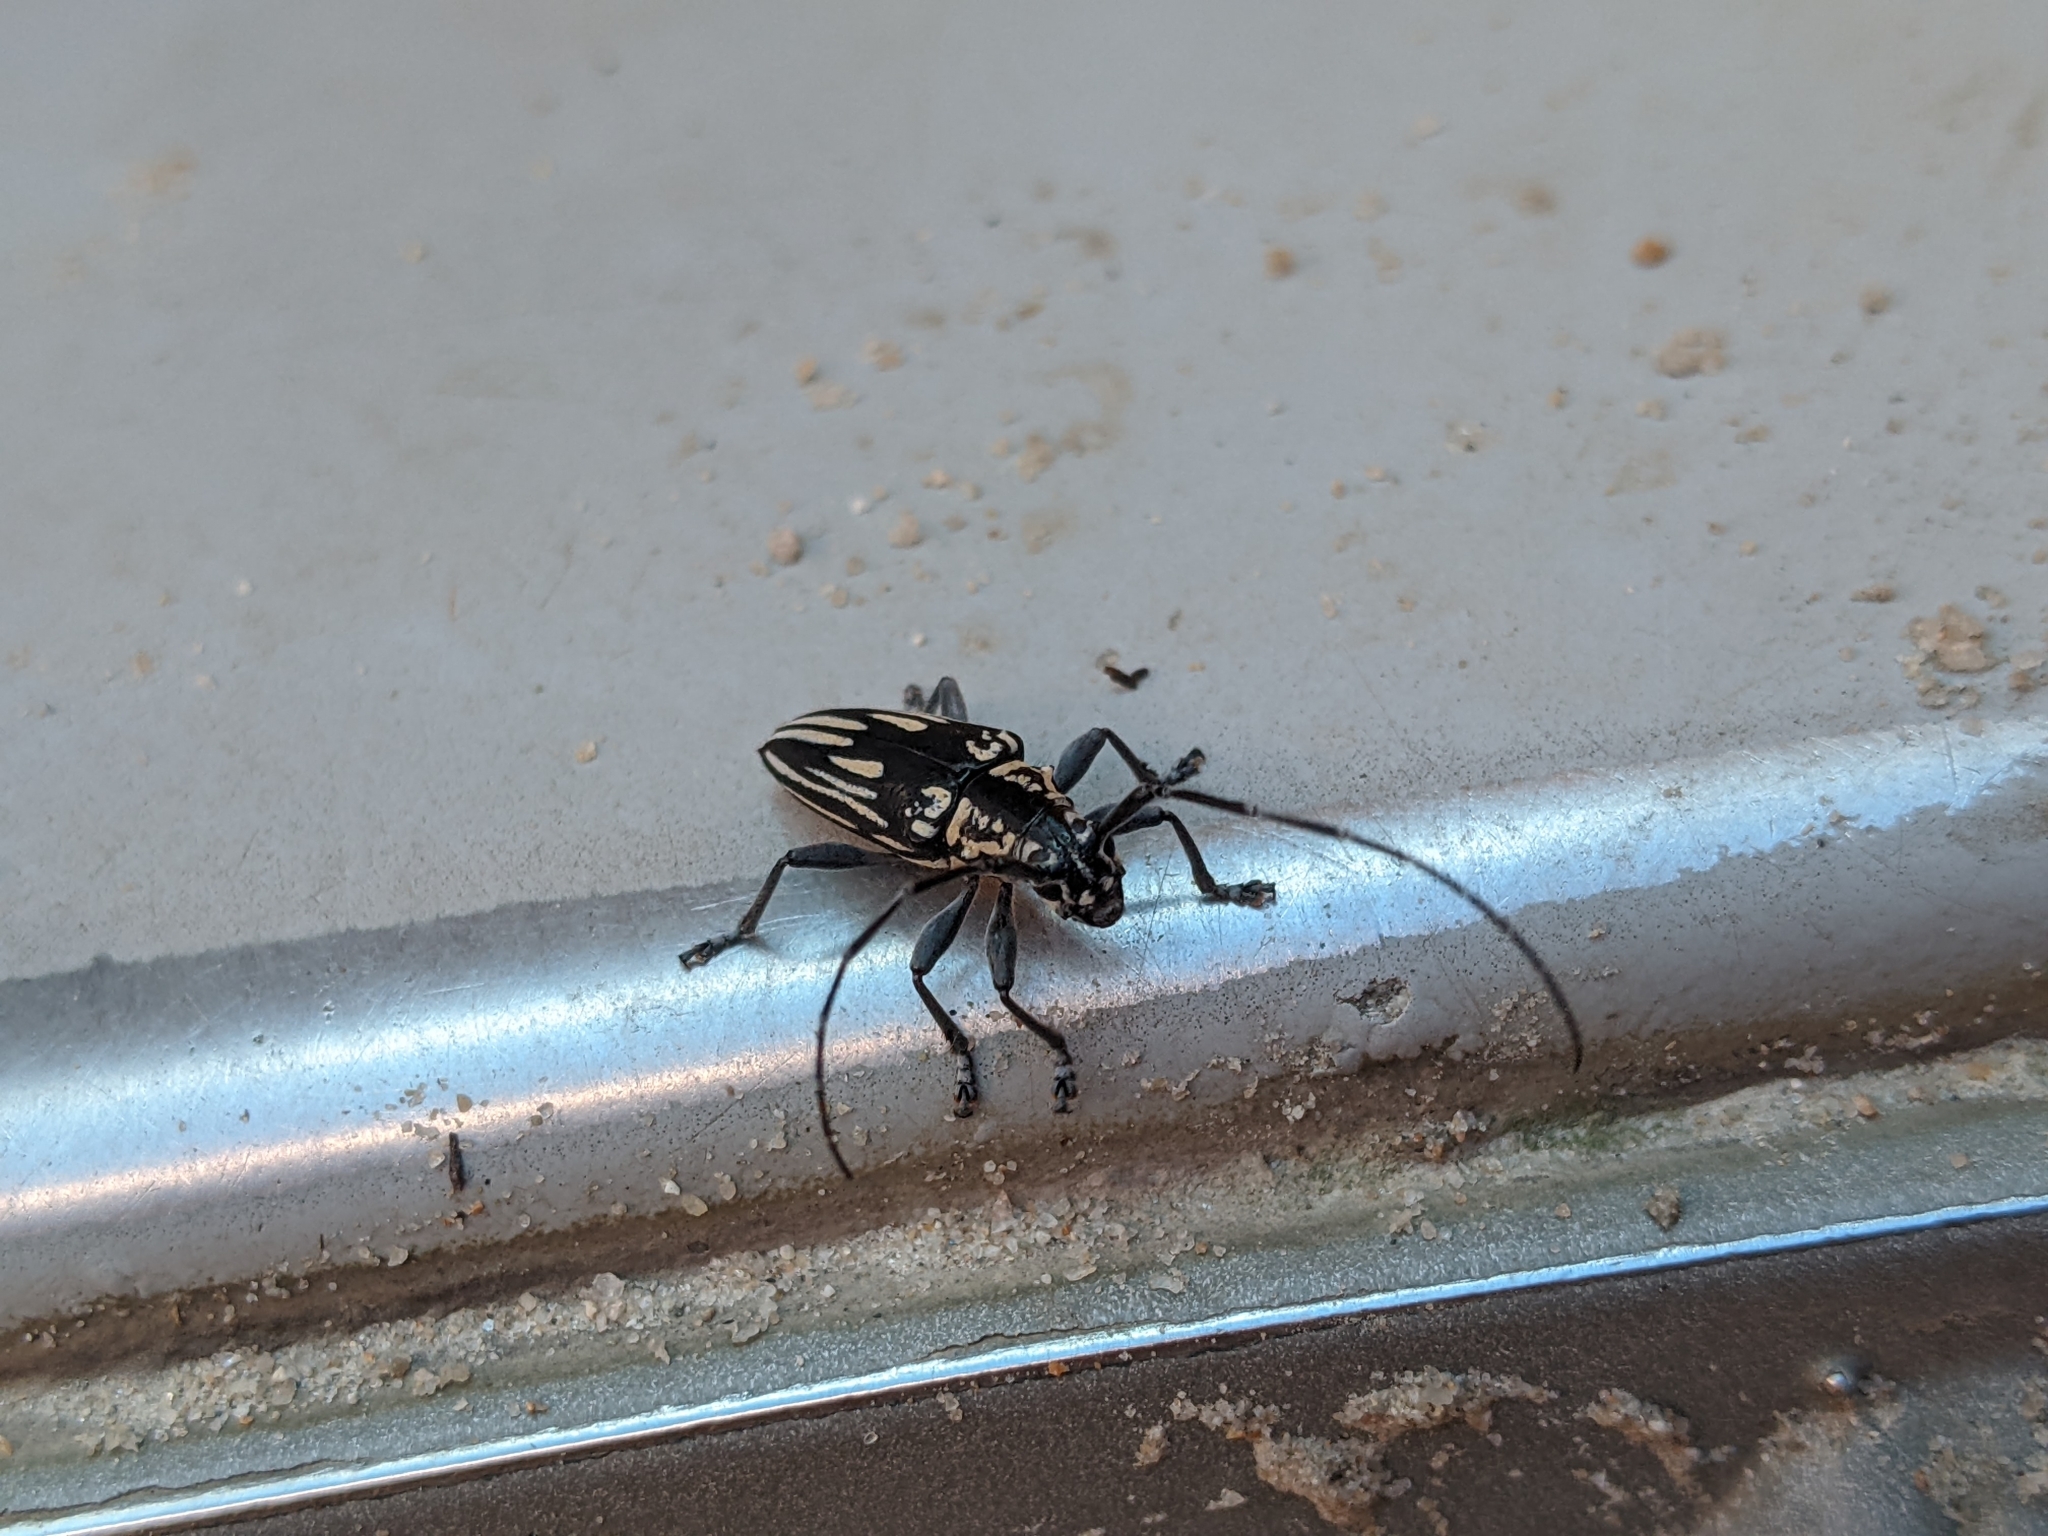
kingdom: Animalia
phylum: Arthropoda
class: Insecta
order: Coleoptera
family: Cerambycidae
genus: Trigonoptera
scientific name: Trigonoptera vittata
